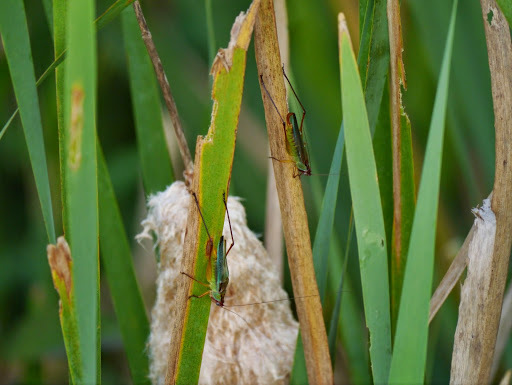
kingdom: Animalia
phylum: Arthropoda
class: Insecta
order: Orthoptera
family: Tettigoniidae
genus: Orchelimum
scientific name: Orchelimum pulchellum
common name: Handsome meadow katydid
